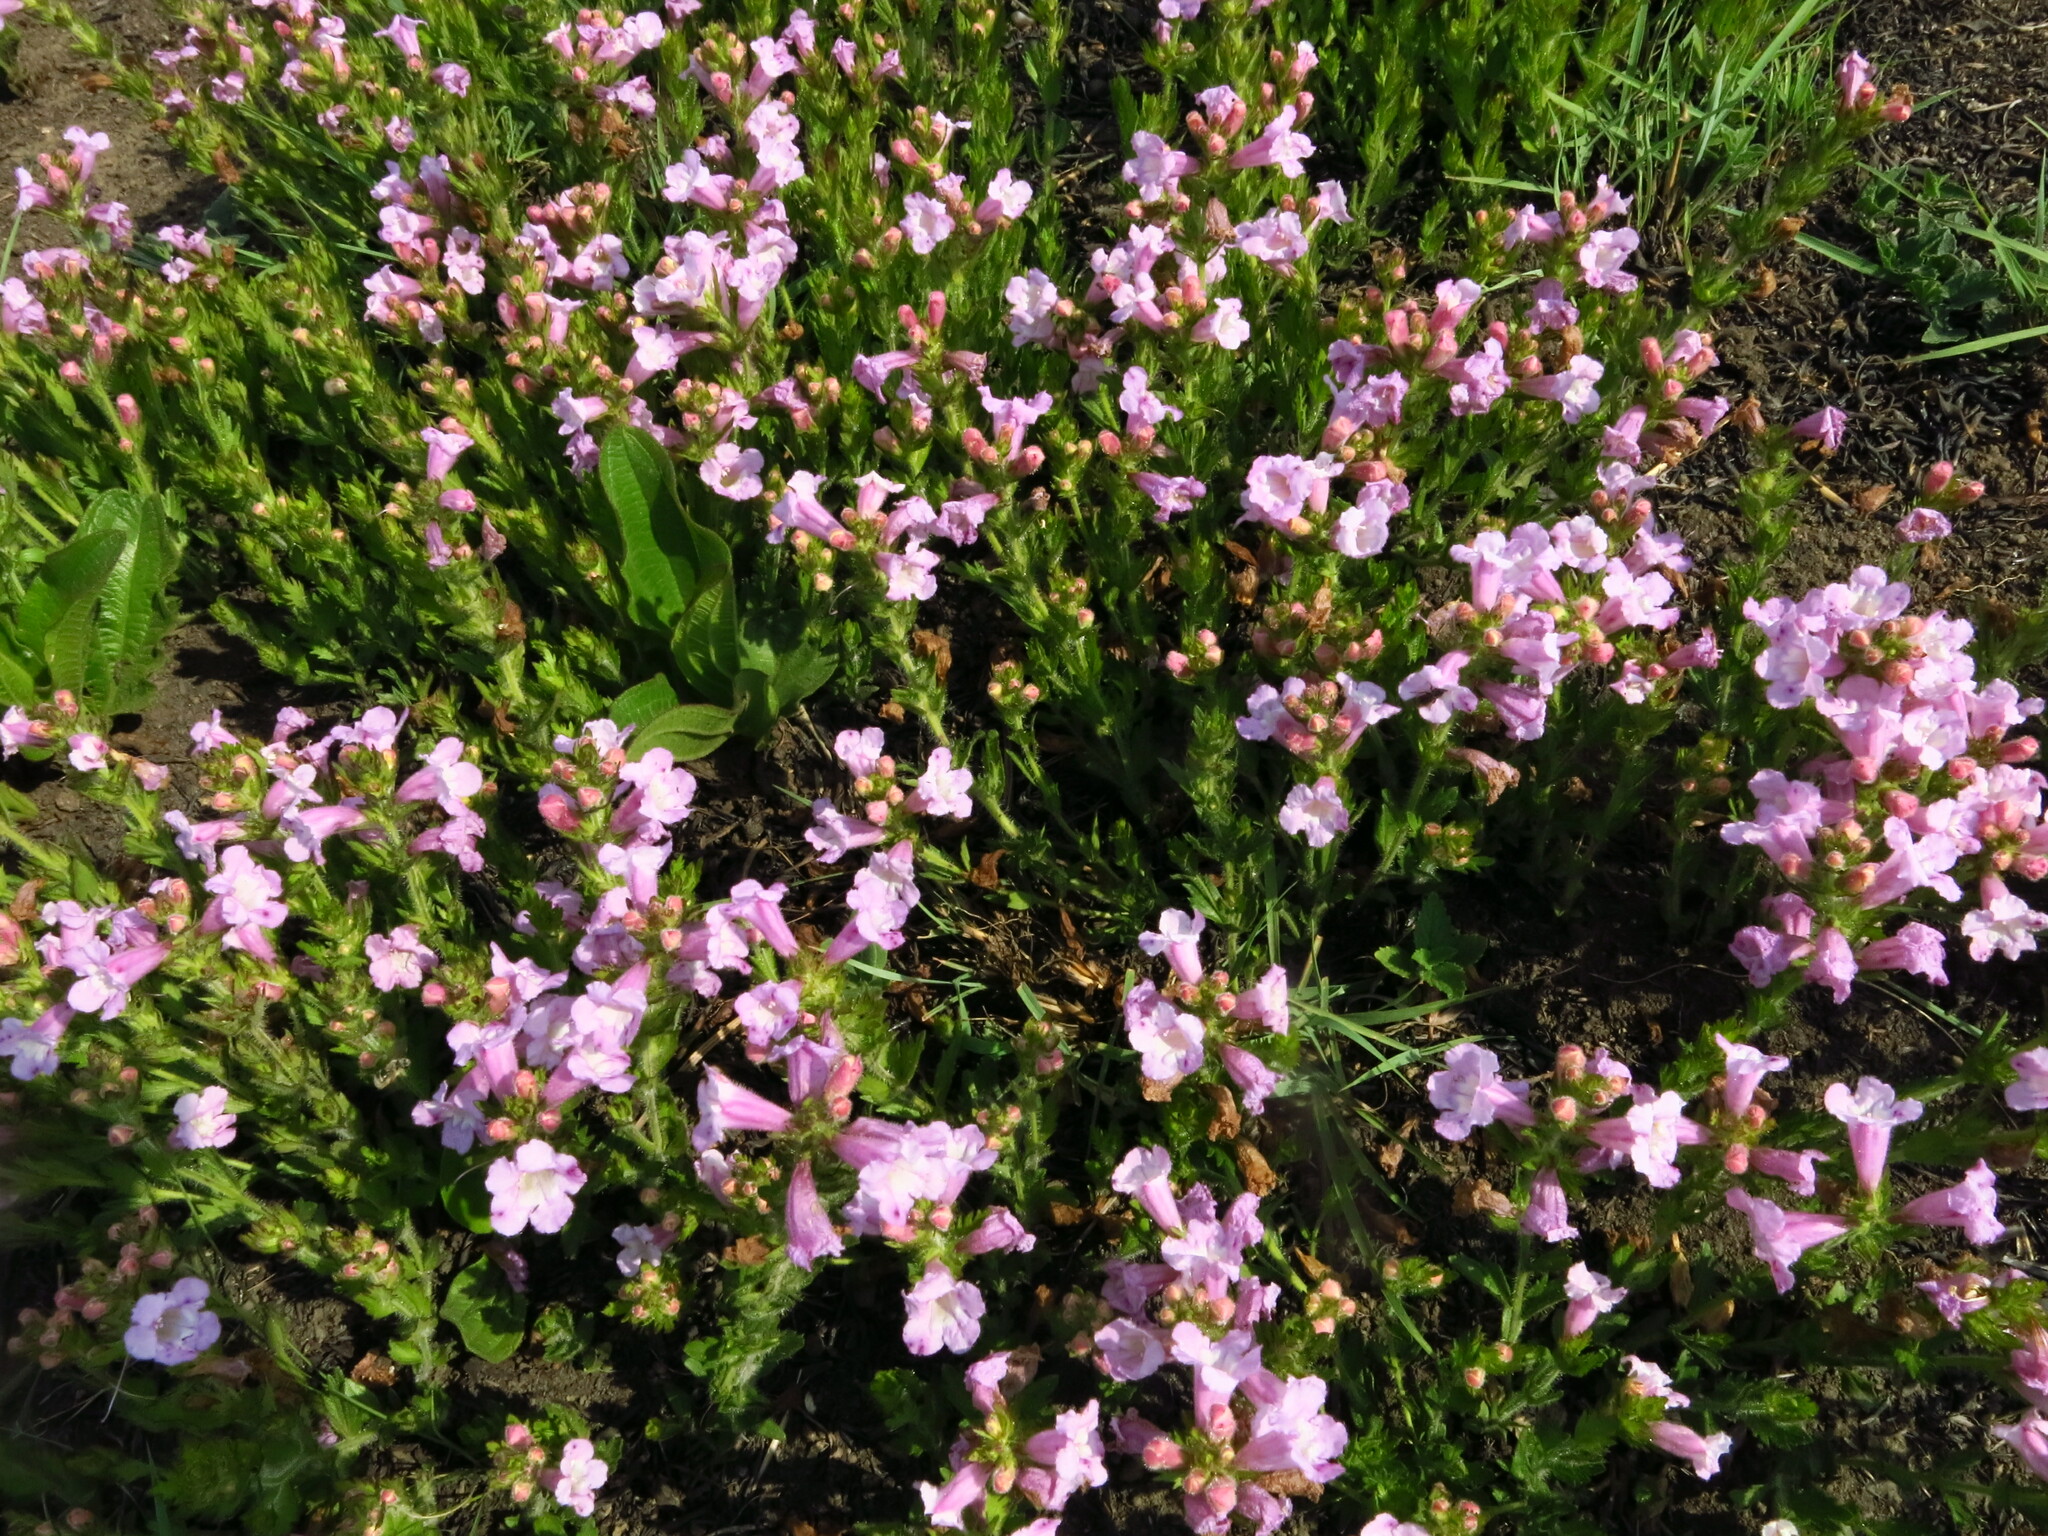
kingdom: Plantae
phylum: Tracheophyta
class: Magnoliopsida
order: Lamiales
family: Orobanchaceae
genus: Graderia
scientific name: Graderia scabra
